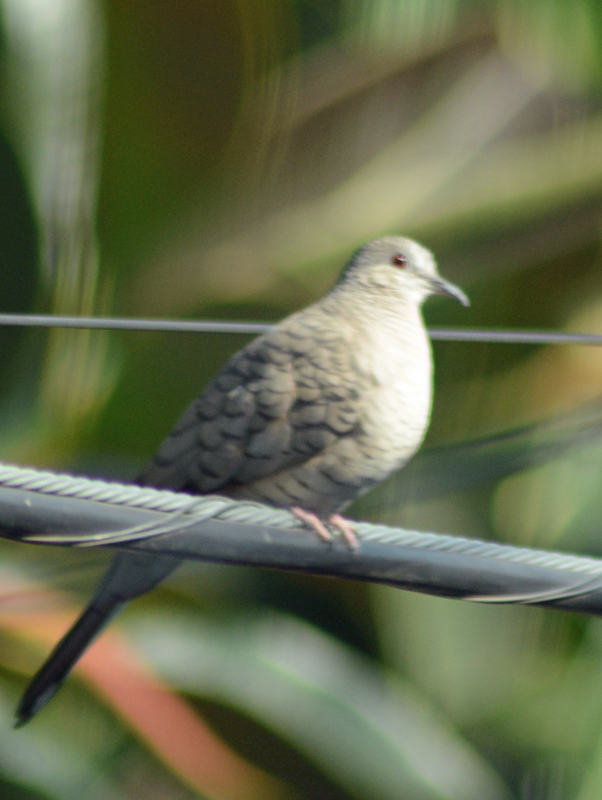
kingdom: Animalia
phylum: Chordata
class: Aves
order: Columbiformes
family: Columbidae
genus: Columbina
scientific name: Columbina inca
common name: Inca dove
